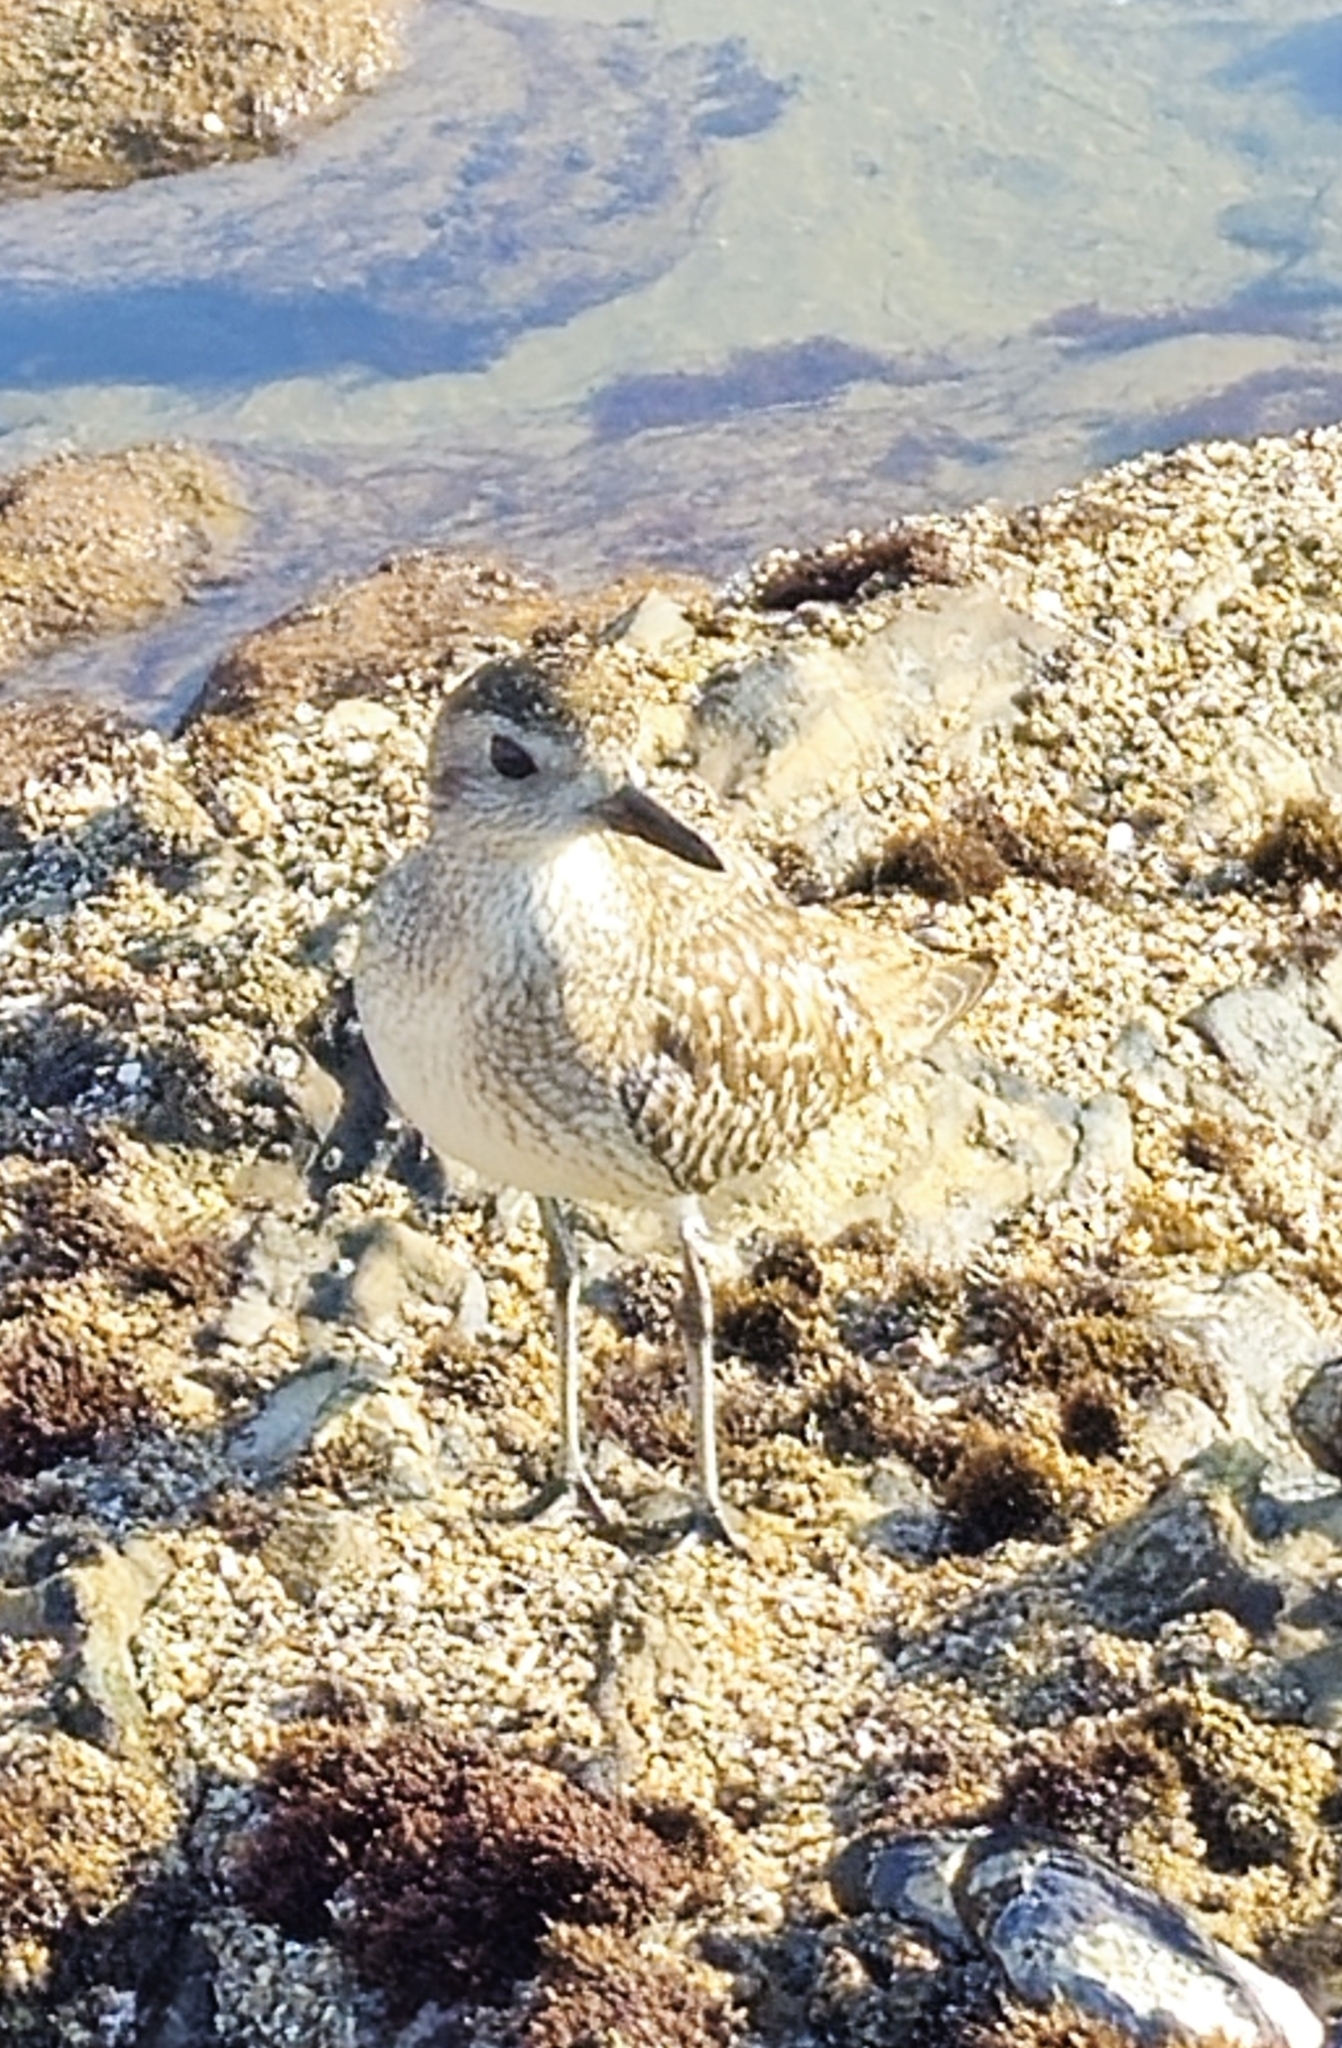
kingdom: Animalia
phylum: Chordata
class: Aves
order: Charadriiformes
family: Charadriidae
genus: Pluvialis
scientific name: Pluvialis squatarola
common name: Grey plover
